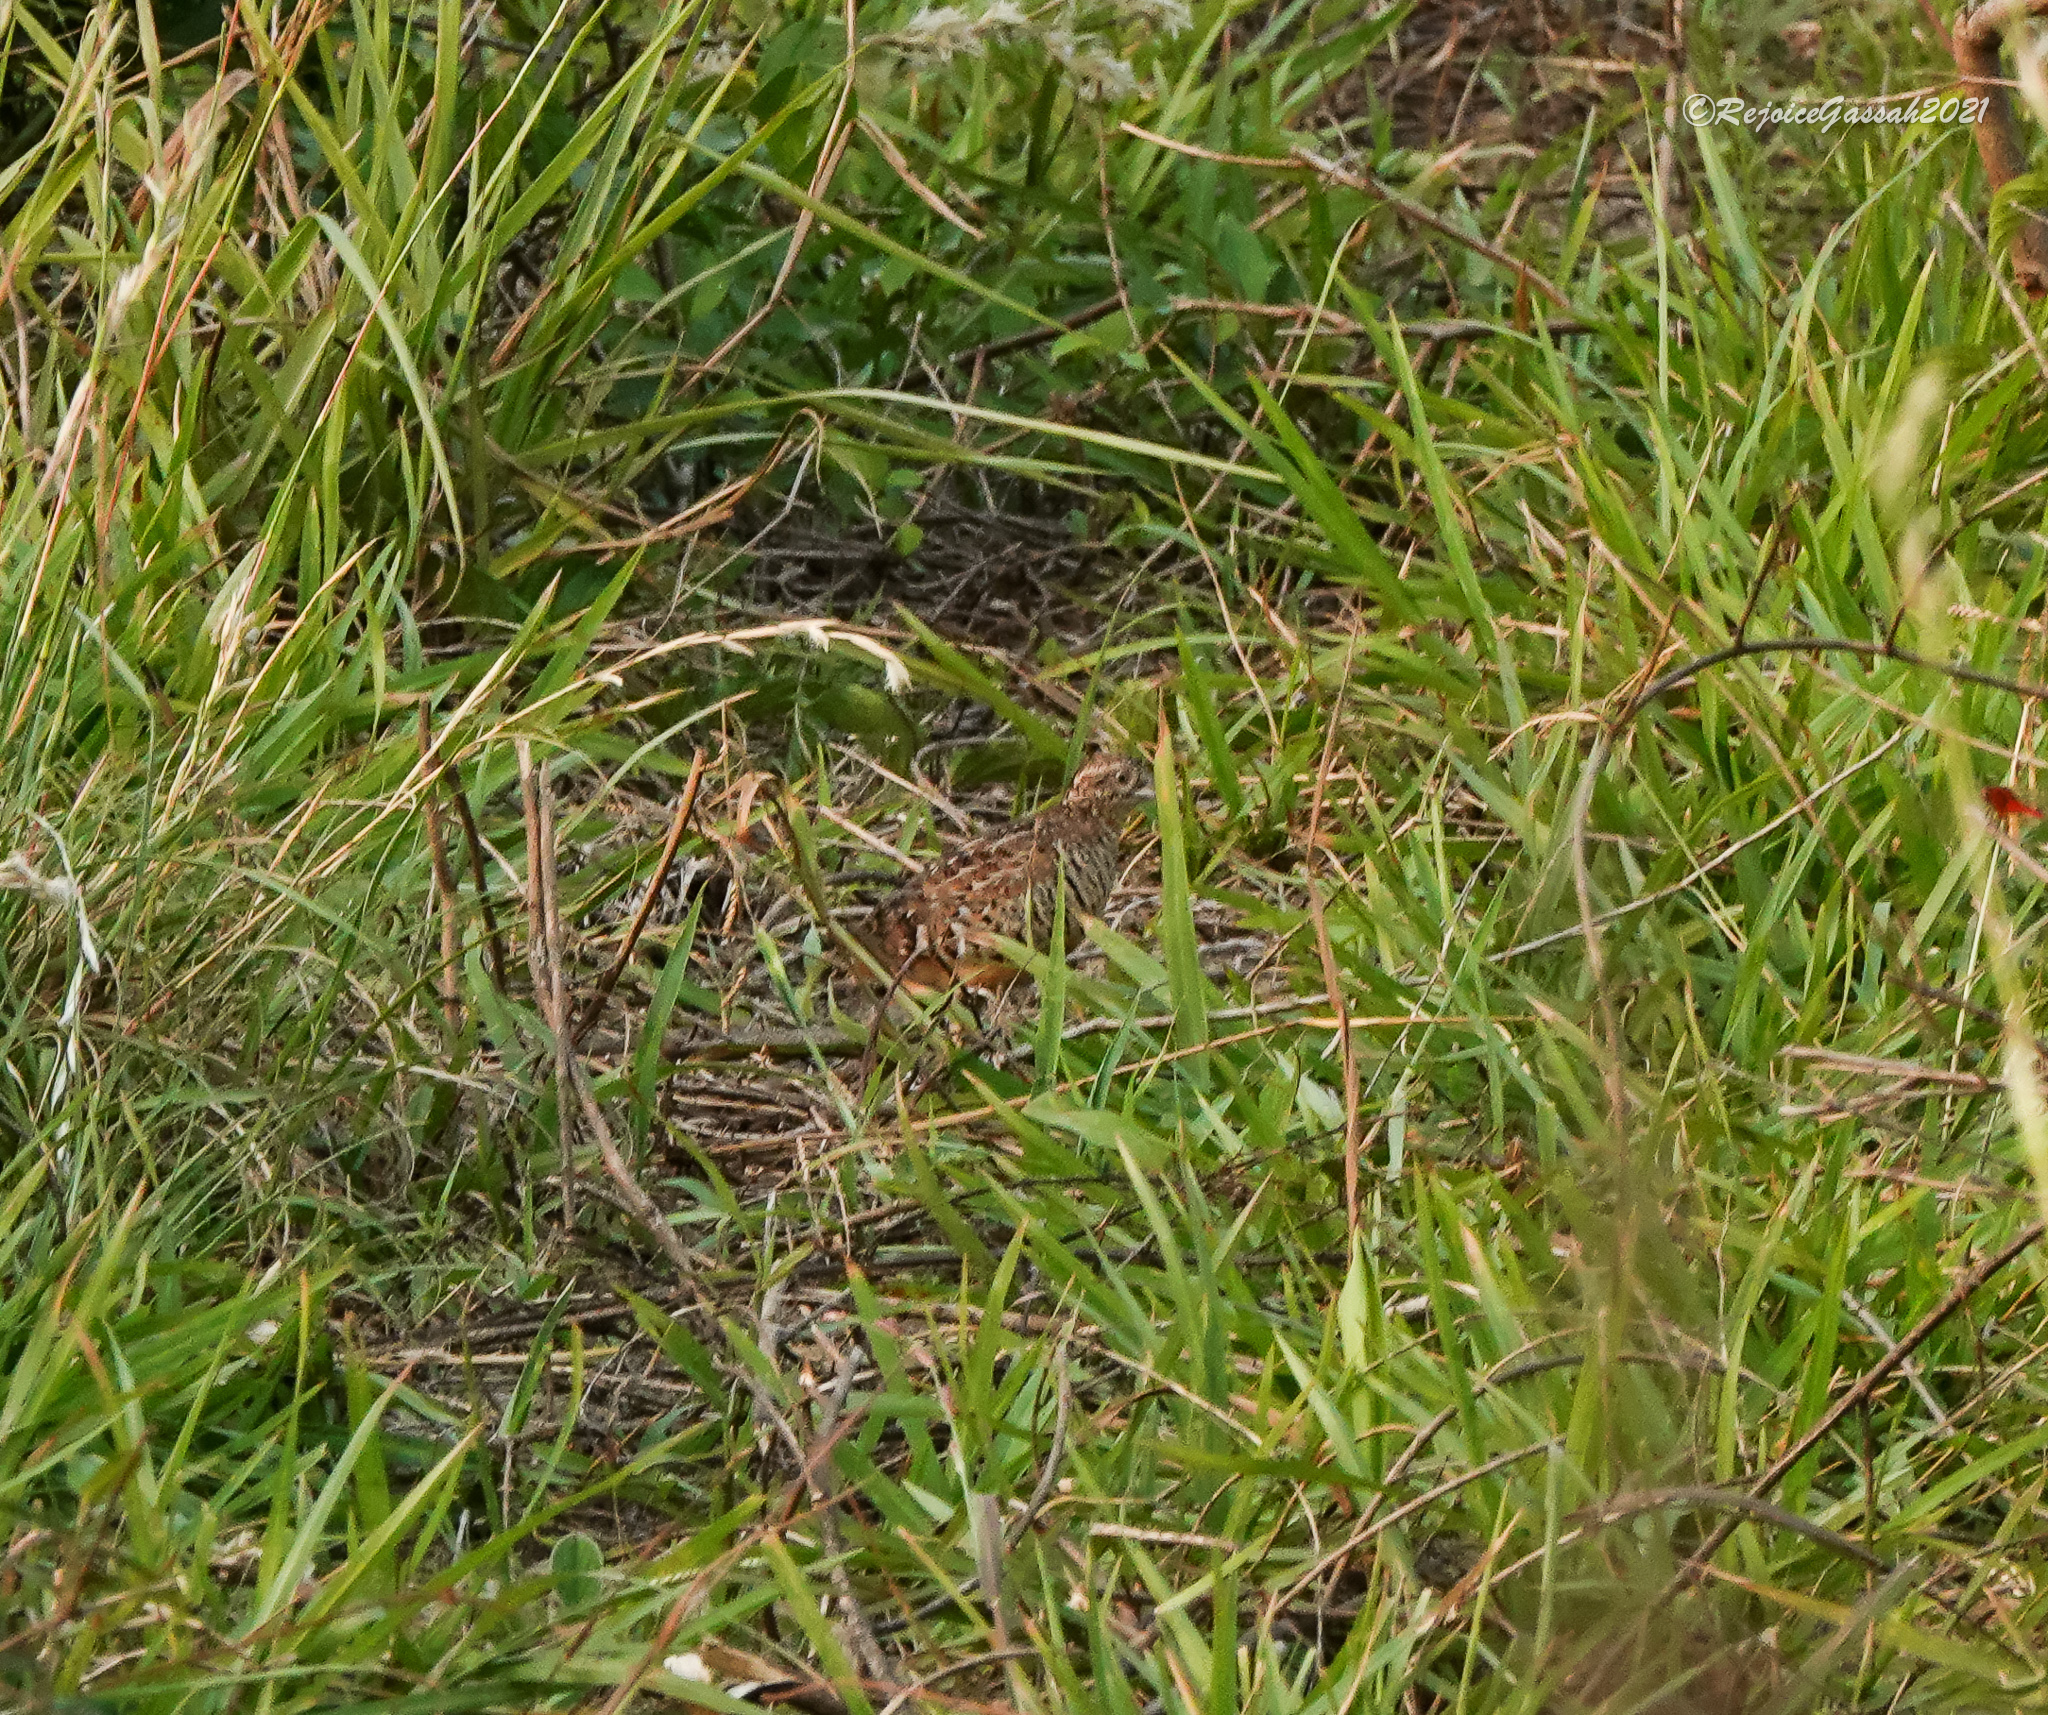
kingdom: Animalia
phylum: Chordata
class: Aves
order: Charadriiformes
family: Turnicidae
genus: Turnix
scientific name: Turnix suscitator
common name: Barred buttonquail
